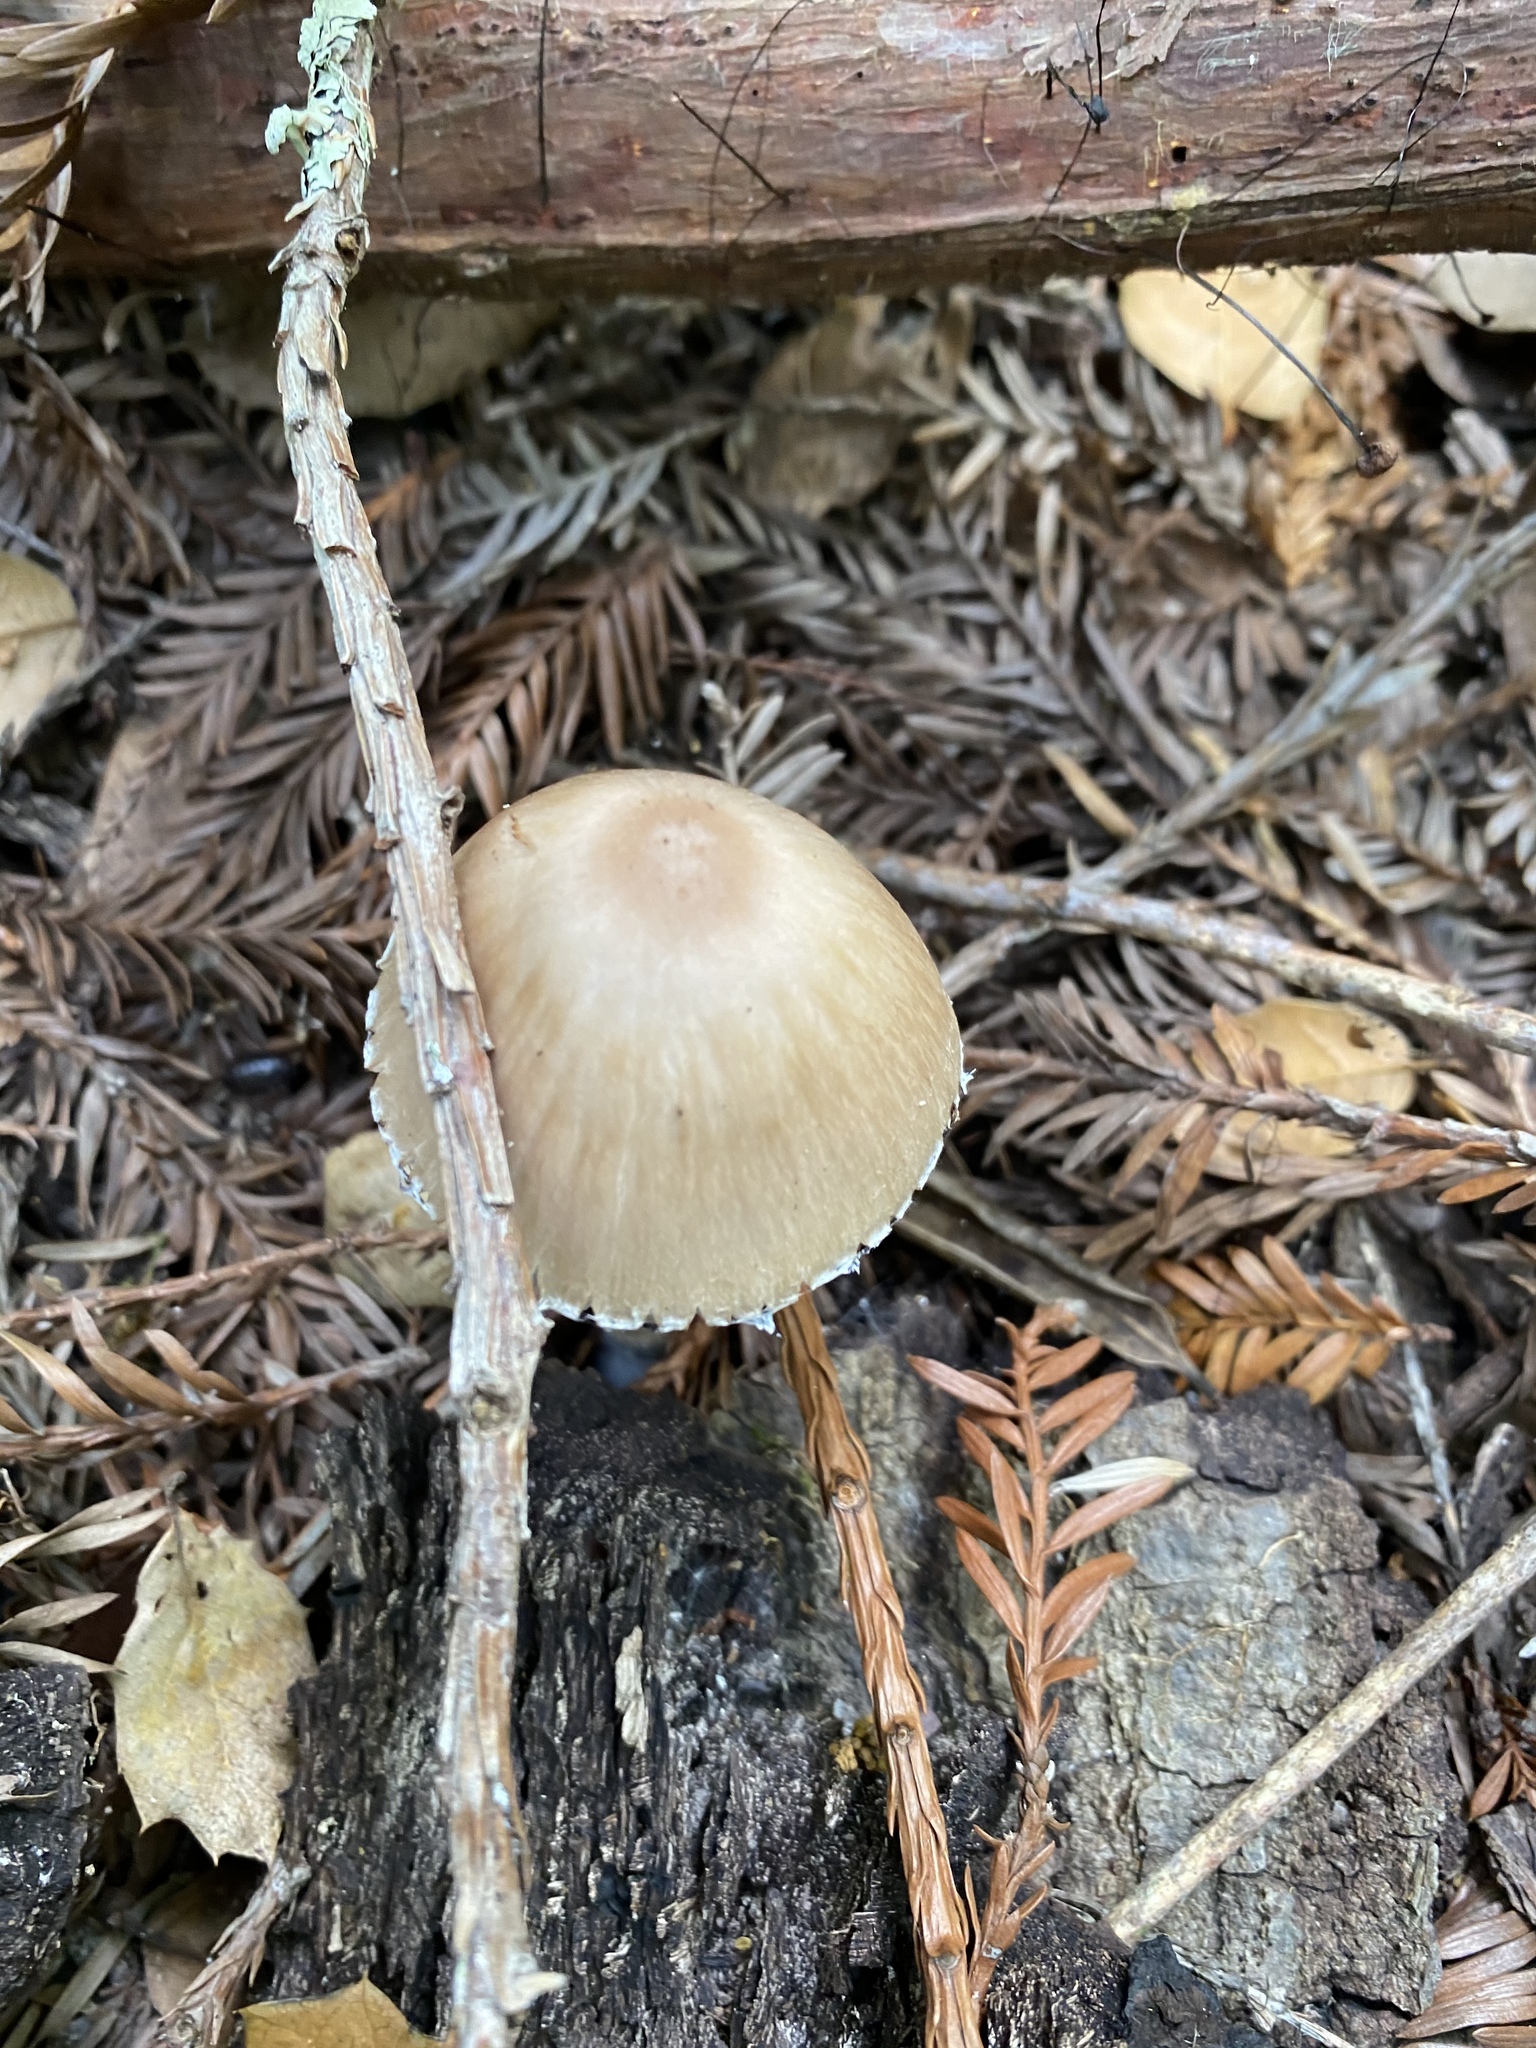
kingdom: Fungi
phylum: Basidiomycota
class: Agaricomycetes
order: Agaricales
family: Psathyrellaceae
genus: Psathyrella
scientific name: Psathyrella longipes
